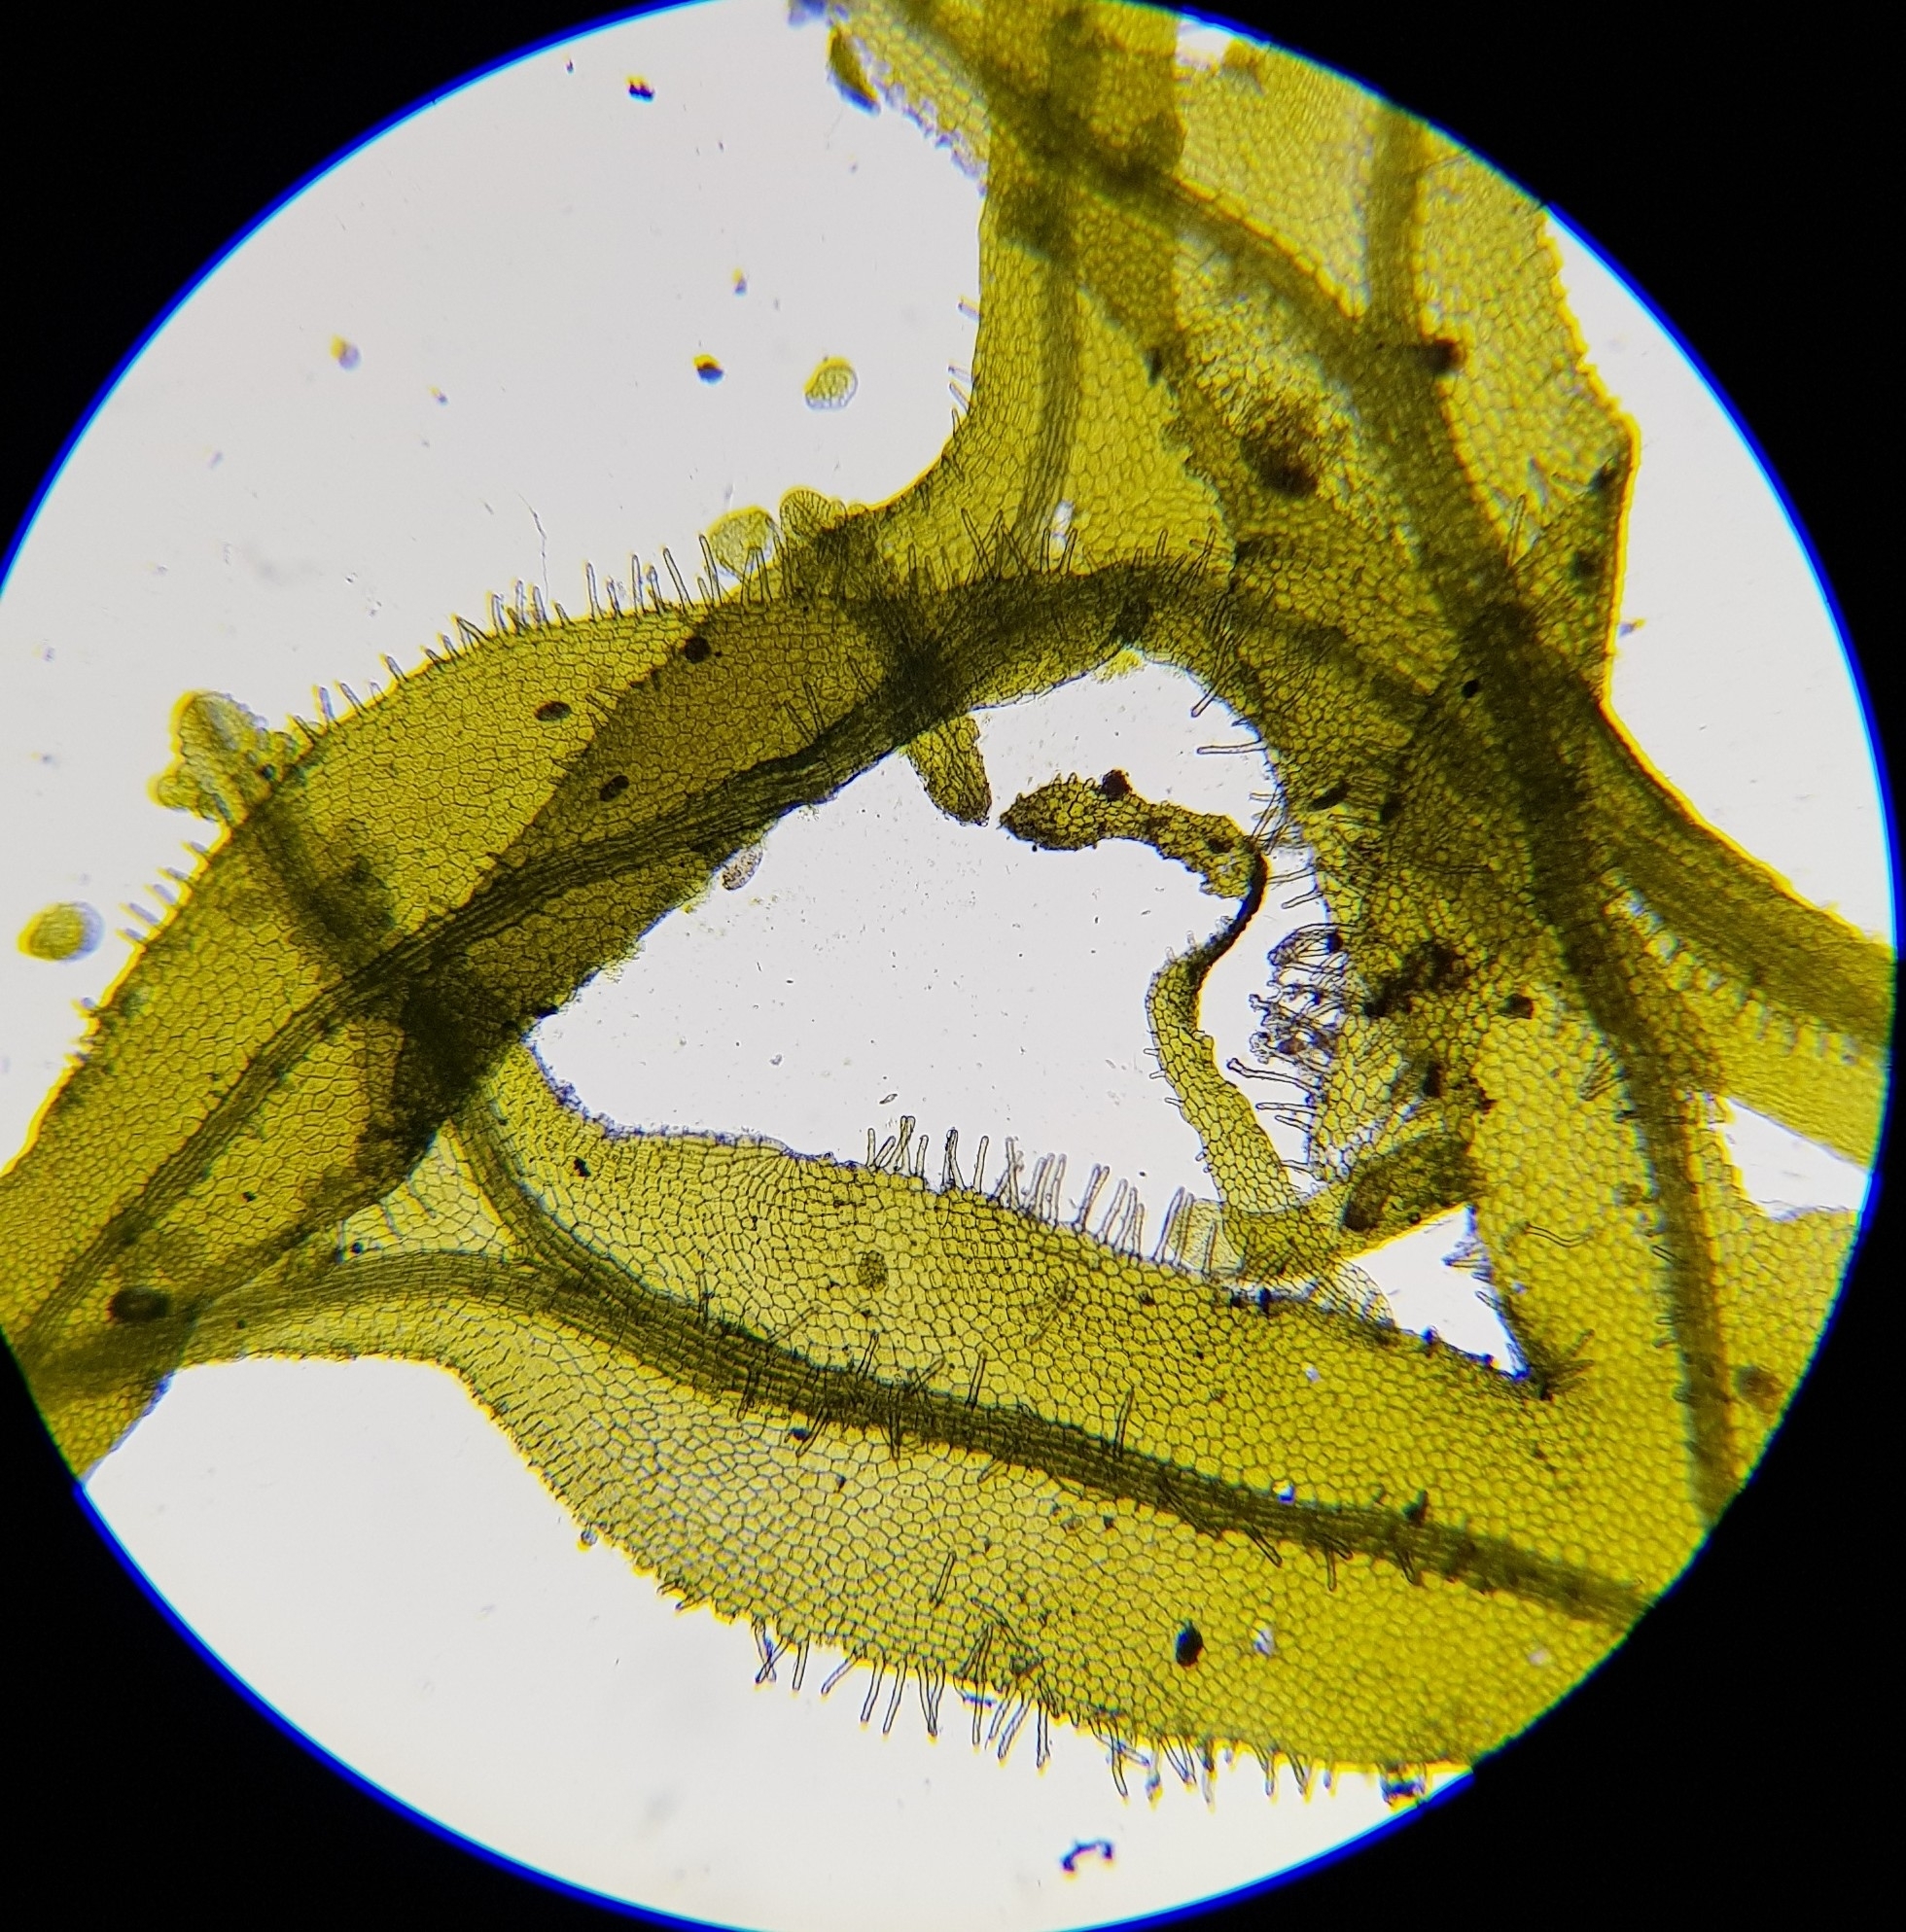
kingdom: Plantae
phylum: Marchantiophyta
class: Jungermanniopsida
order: Metzgeriales
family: Metzgeriaceae
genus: Metzgeria
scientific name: Metzgeria consanguinea
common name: Whiskered veilwort
